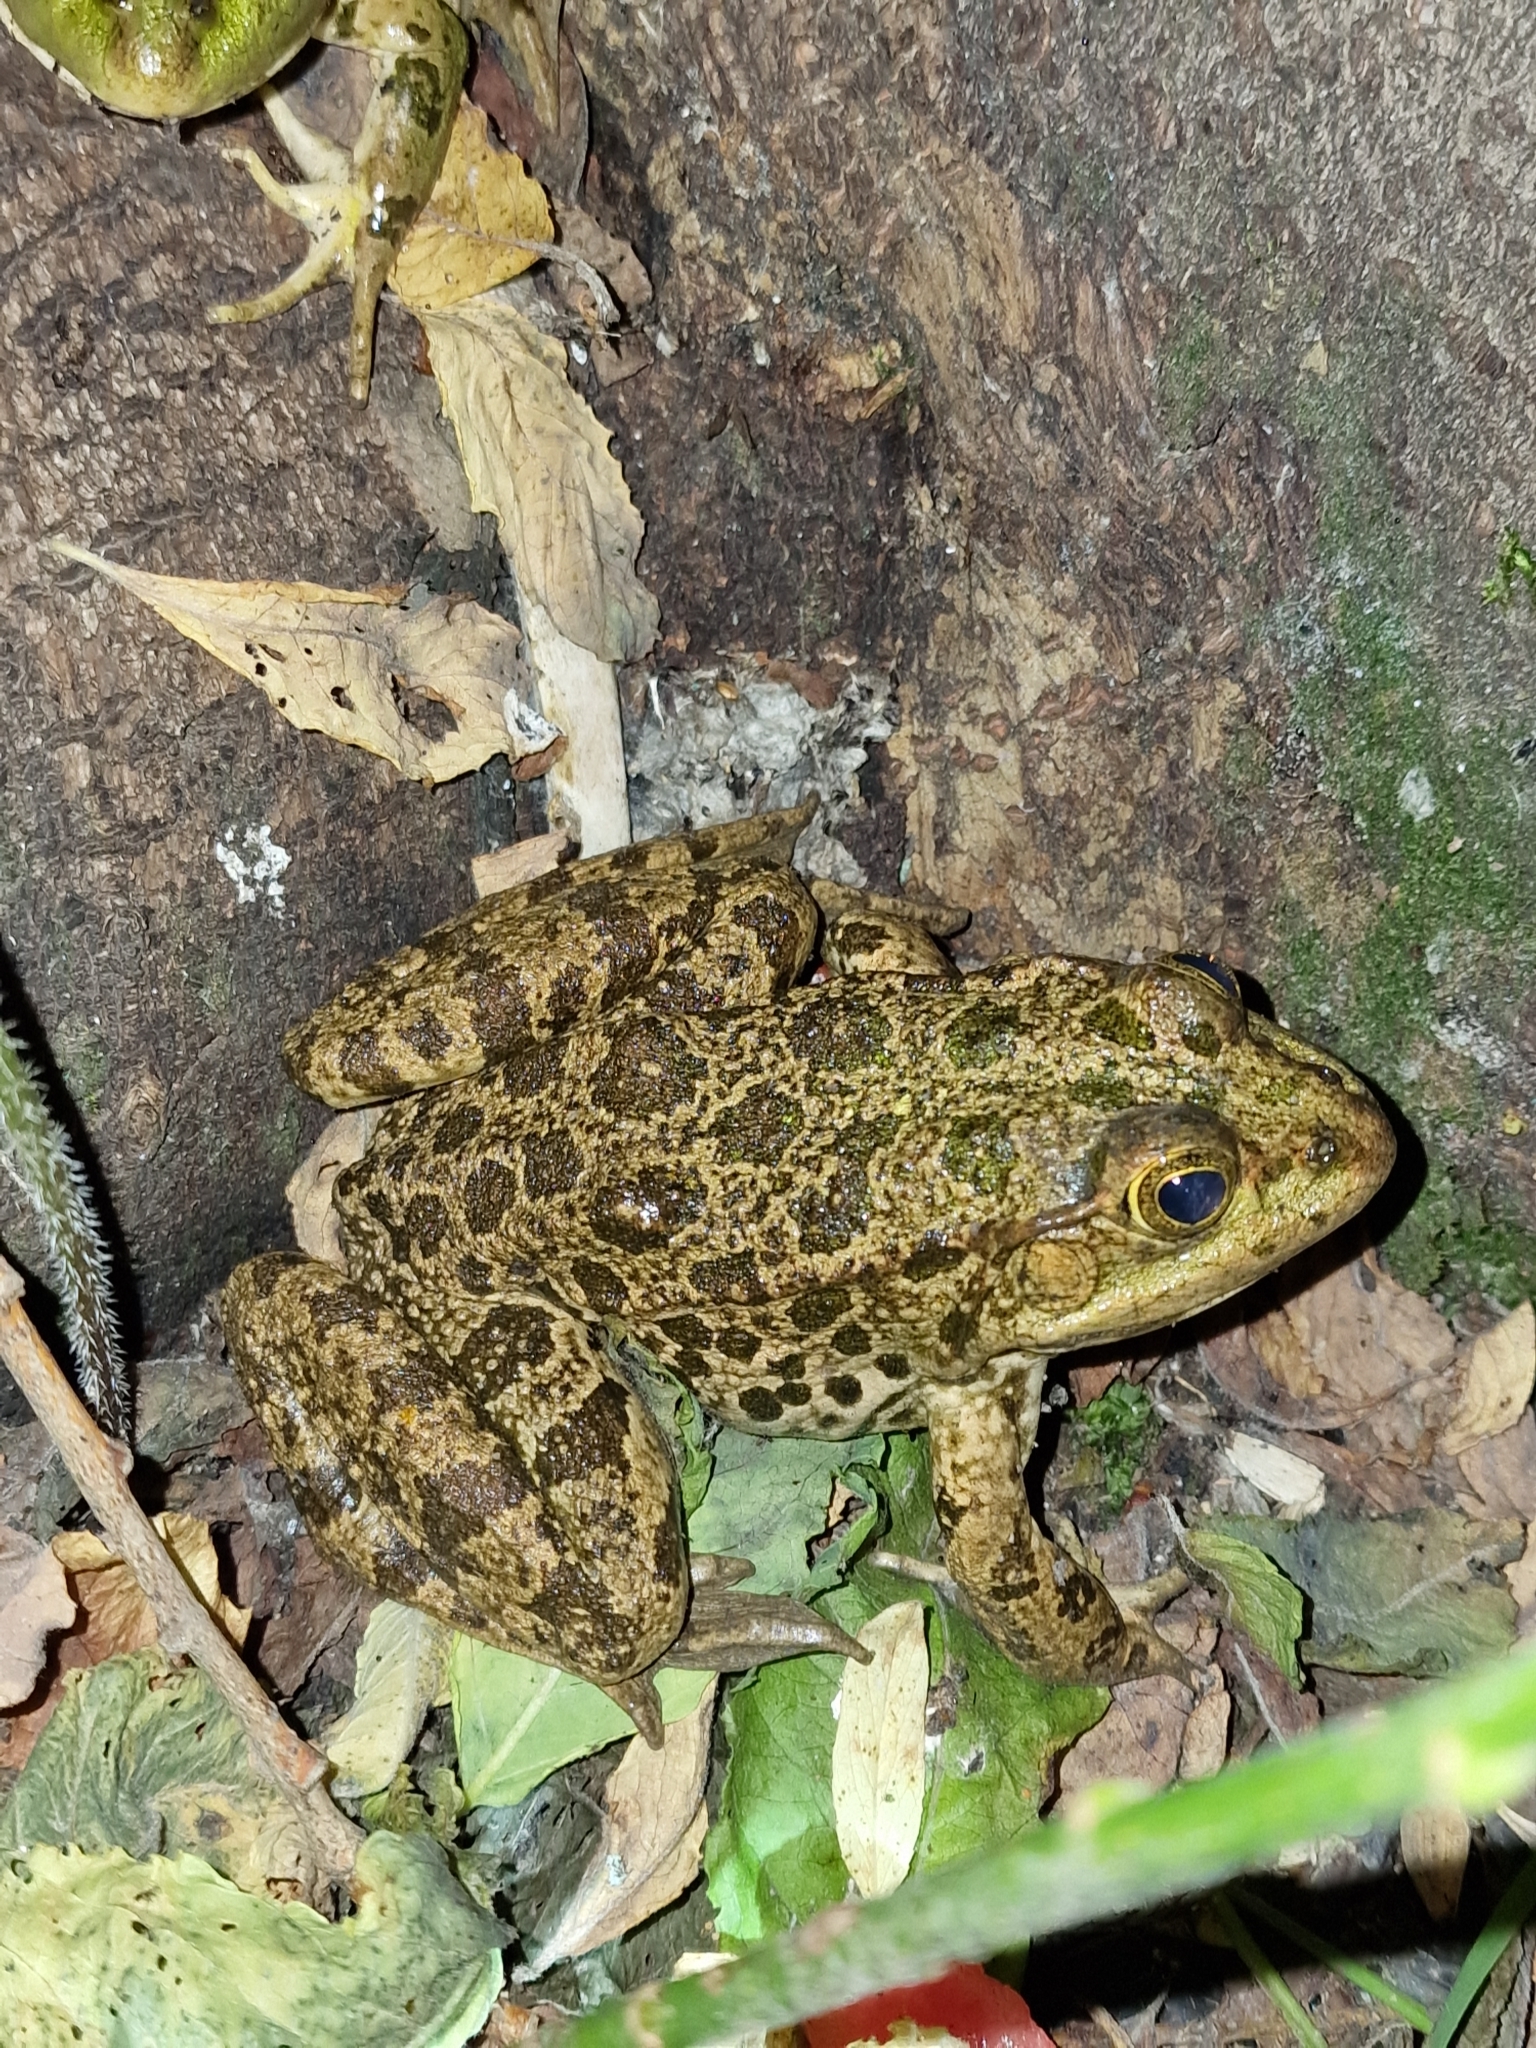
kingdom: Animalia
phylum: Chordata
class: Amphibia
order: Anura
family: Ranidae
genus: Pelophylax
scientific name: Pelophylax ridibundus
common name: Marsh frog
